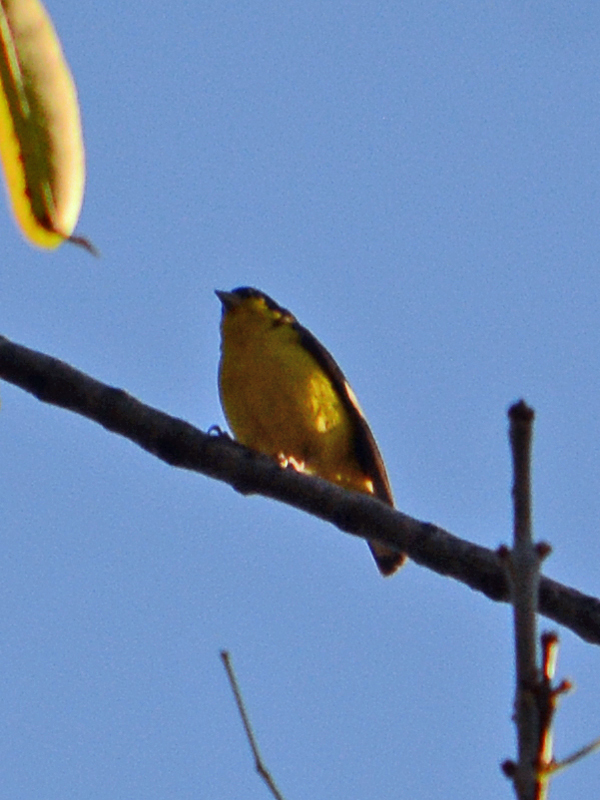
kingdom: Animalia
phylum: Chordata
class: Aves
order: Passeriformes
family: Fringillidae
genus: Spinus
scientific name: Spinus psaltria
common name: Lesser goldfinch
